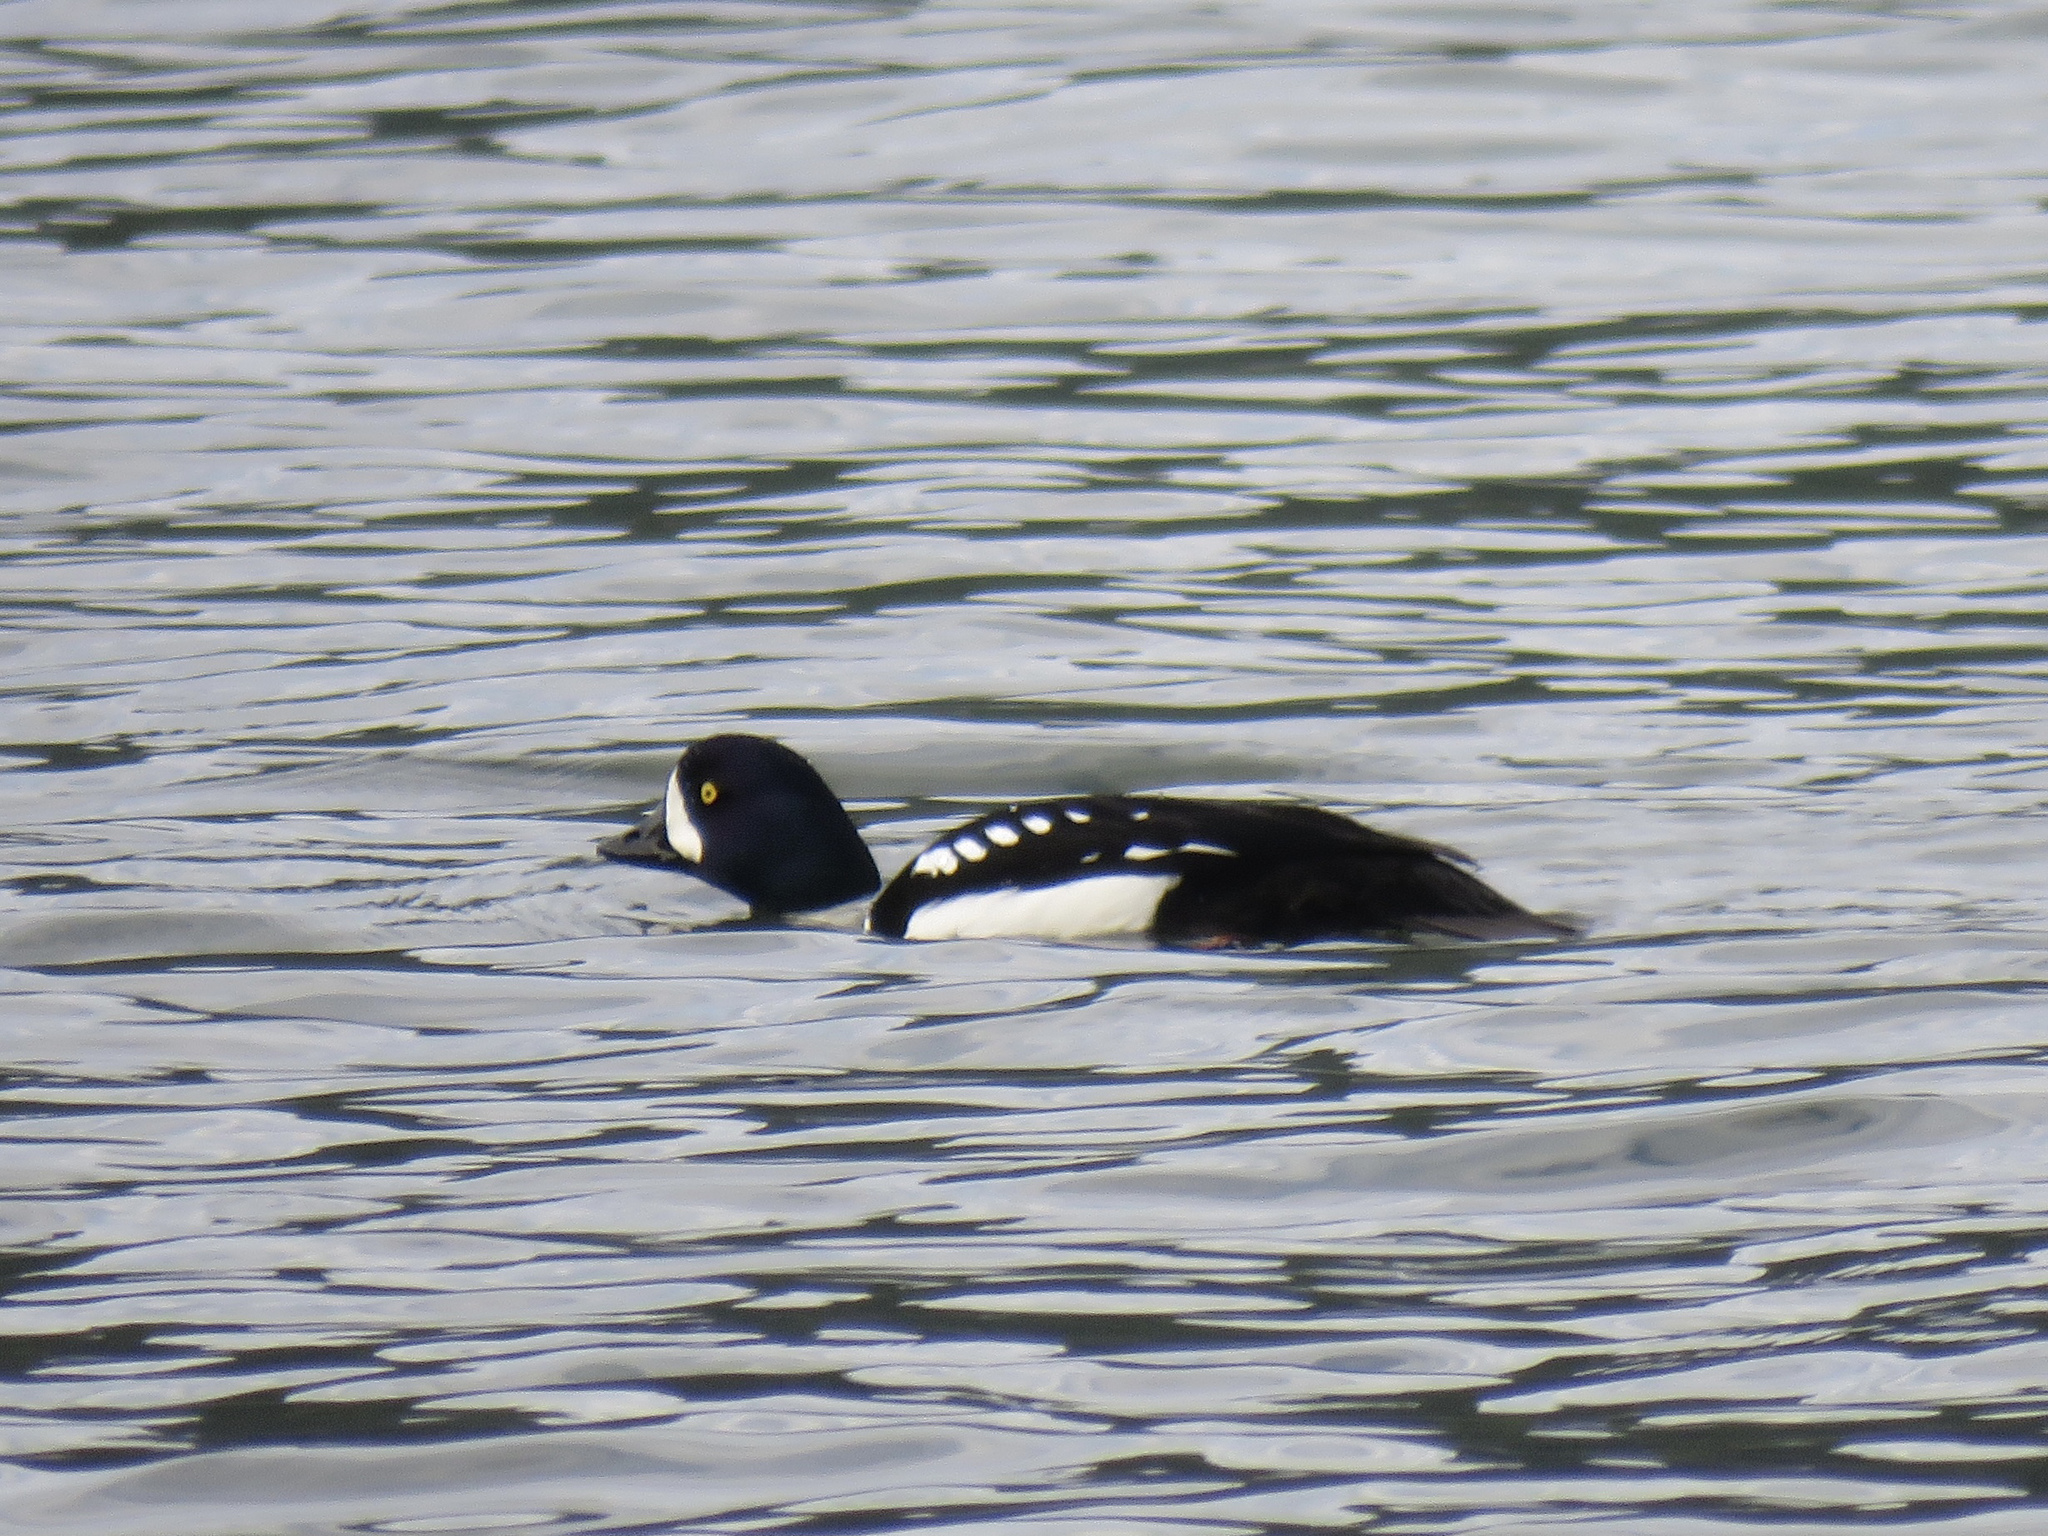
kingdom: Animalia
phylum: Chordata
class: Aves
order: Anseriformes
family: Anatidae
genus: Bucephala
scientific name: Bucephala islandica
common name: Barrow's goldeneye
